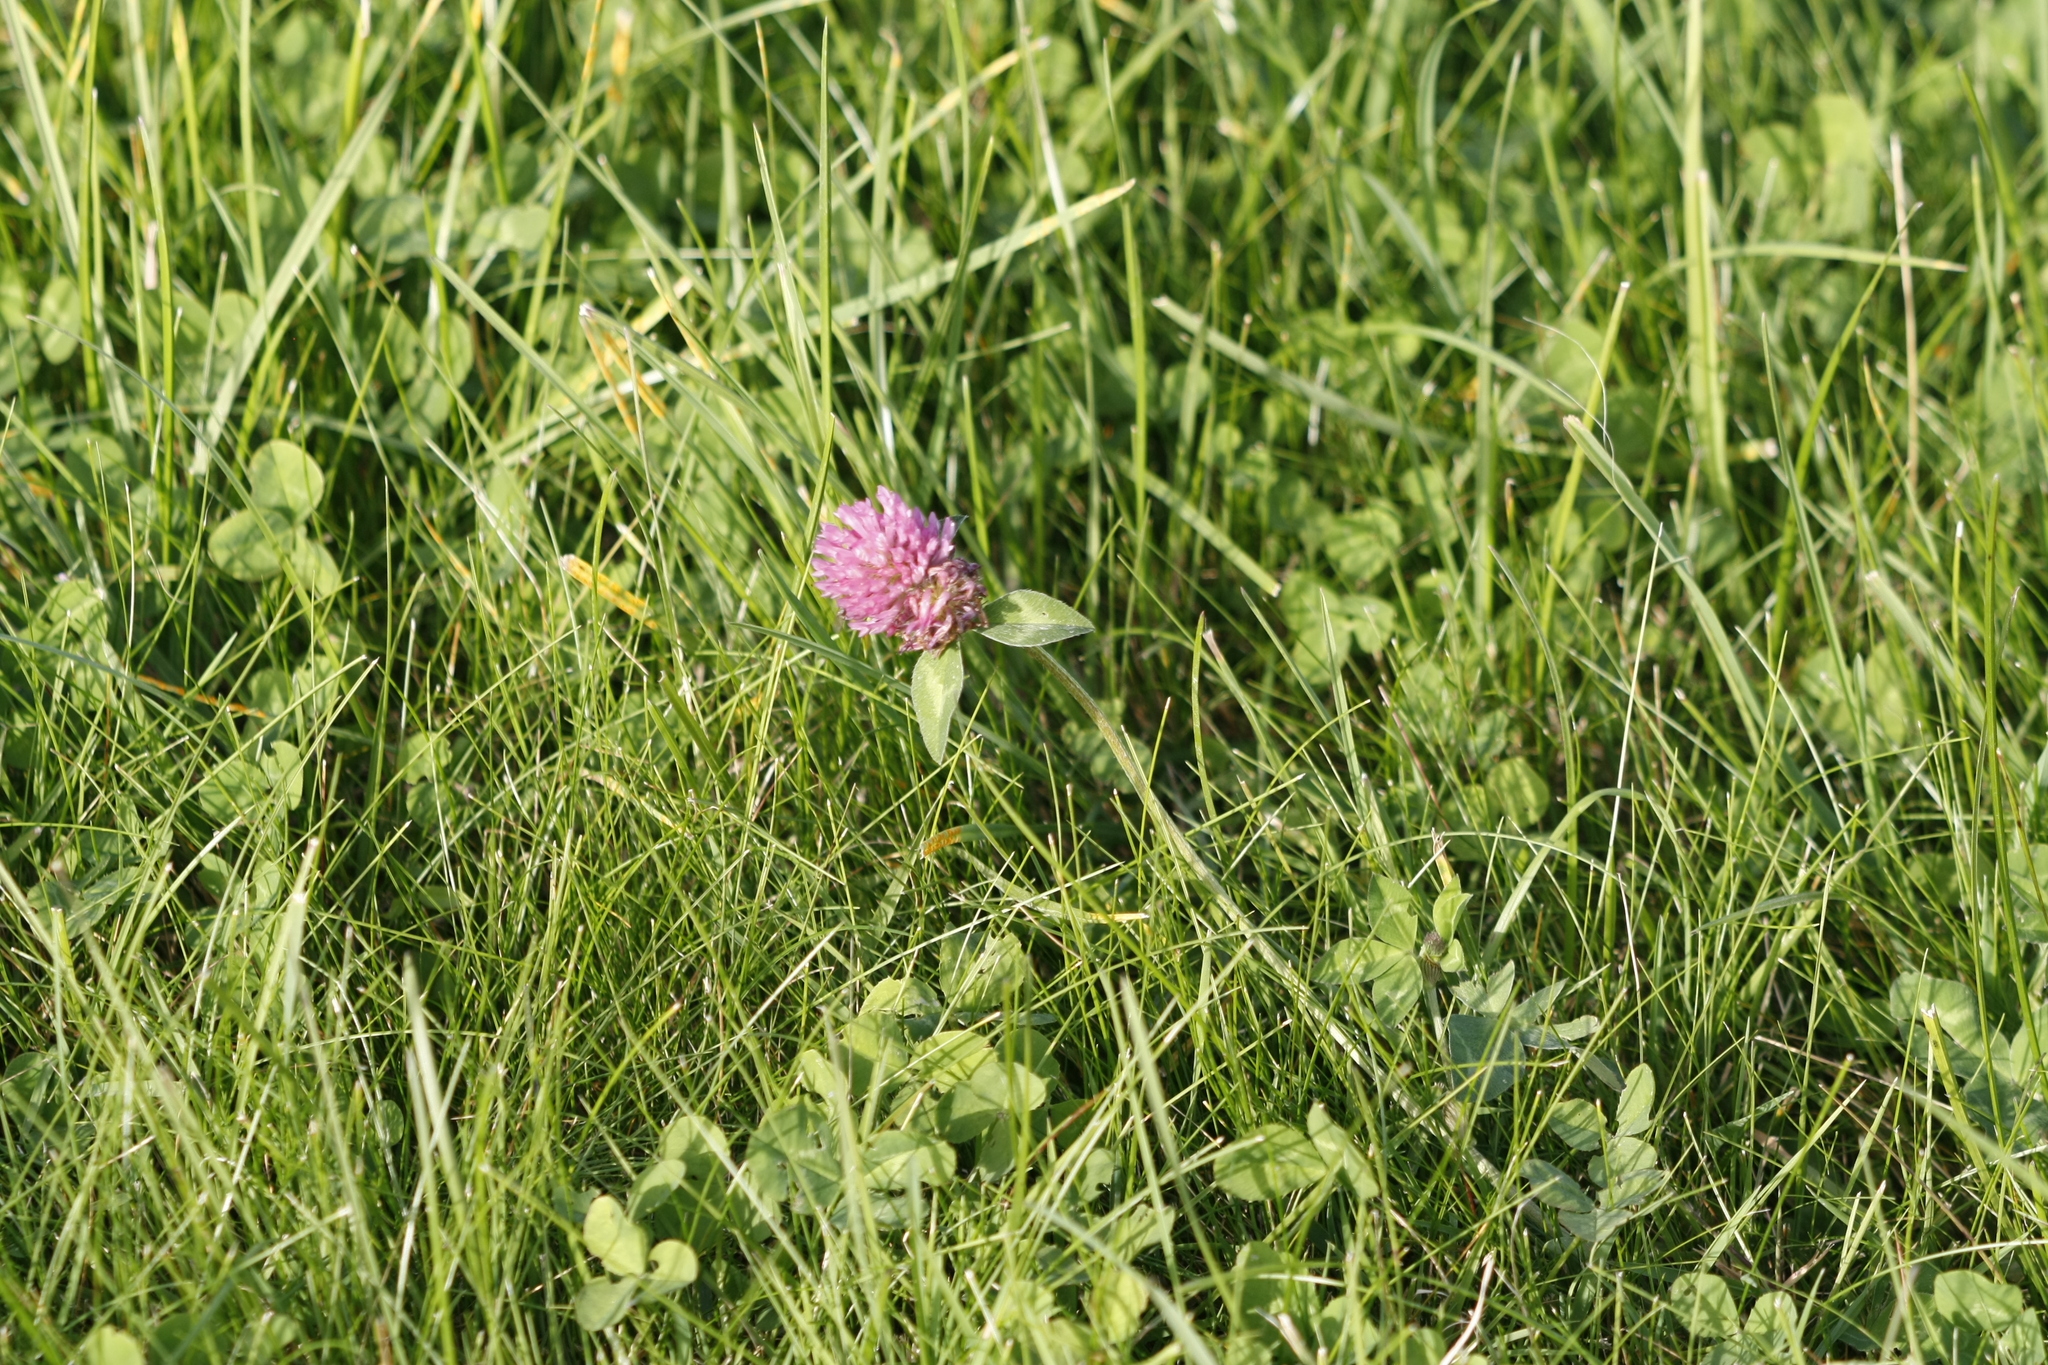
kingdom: Plantae
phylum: Tracheophyta
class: Magnoliopsida
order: Fabales
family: Fabaceae
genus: Trifolium
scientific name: Trifolium pratense
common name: Red clover
